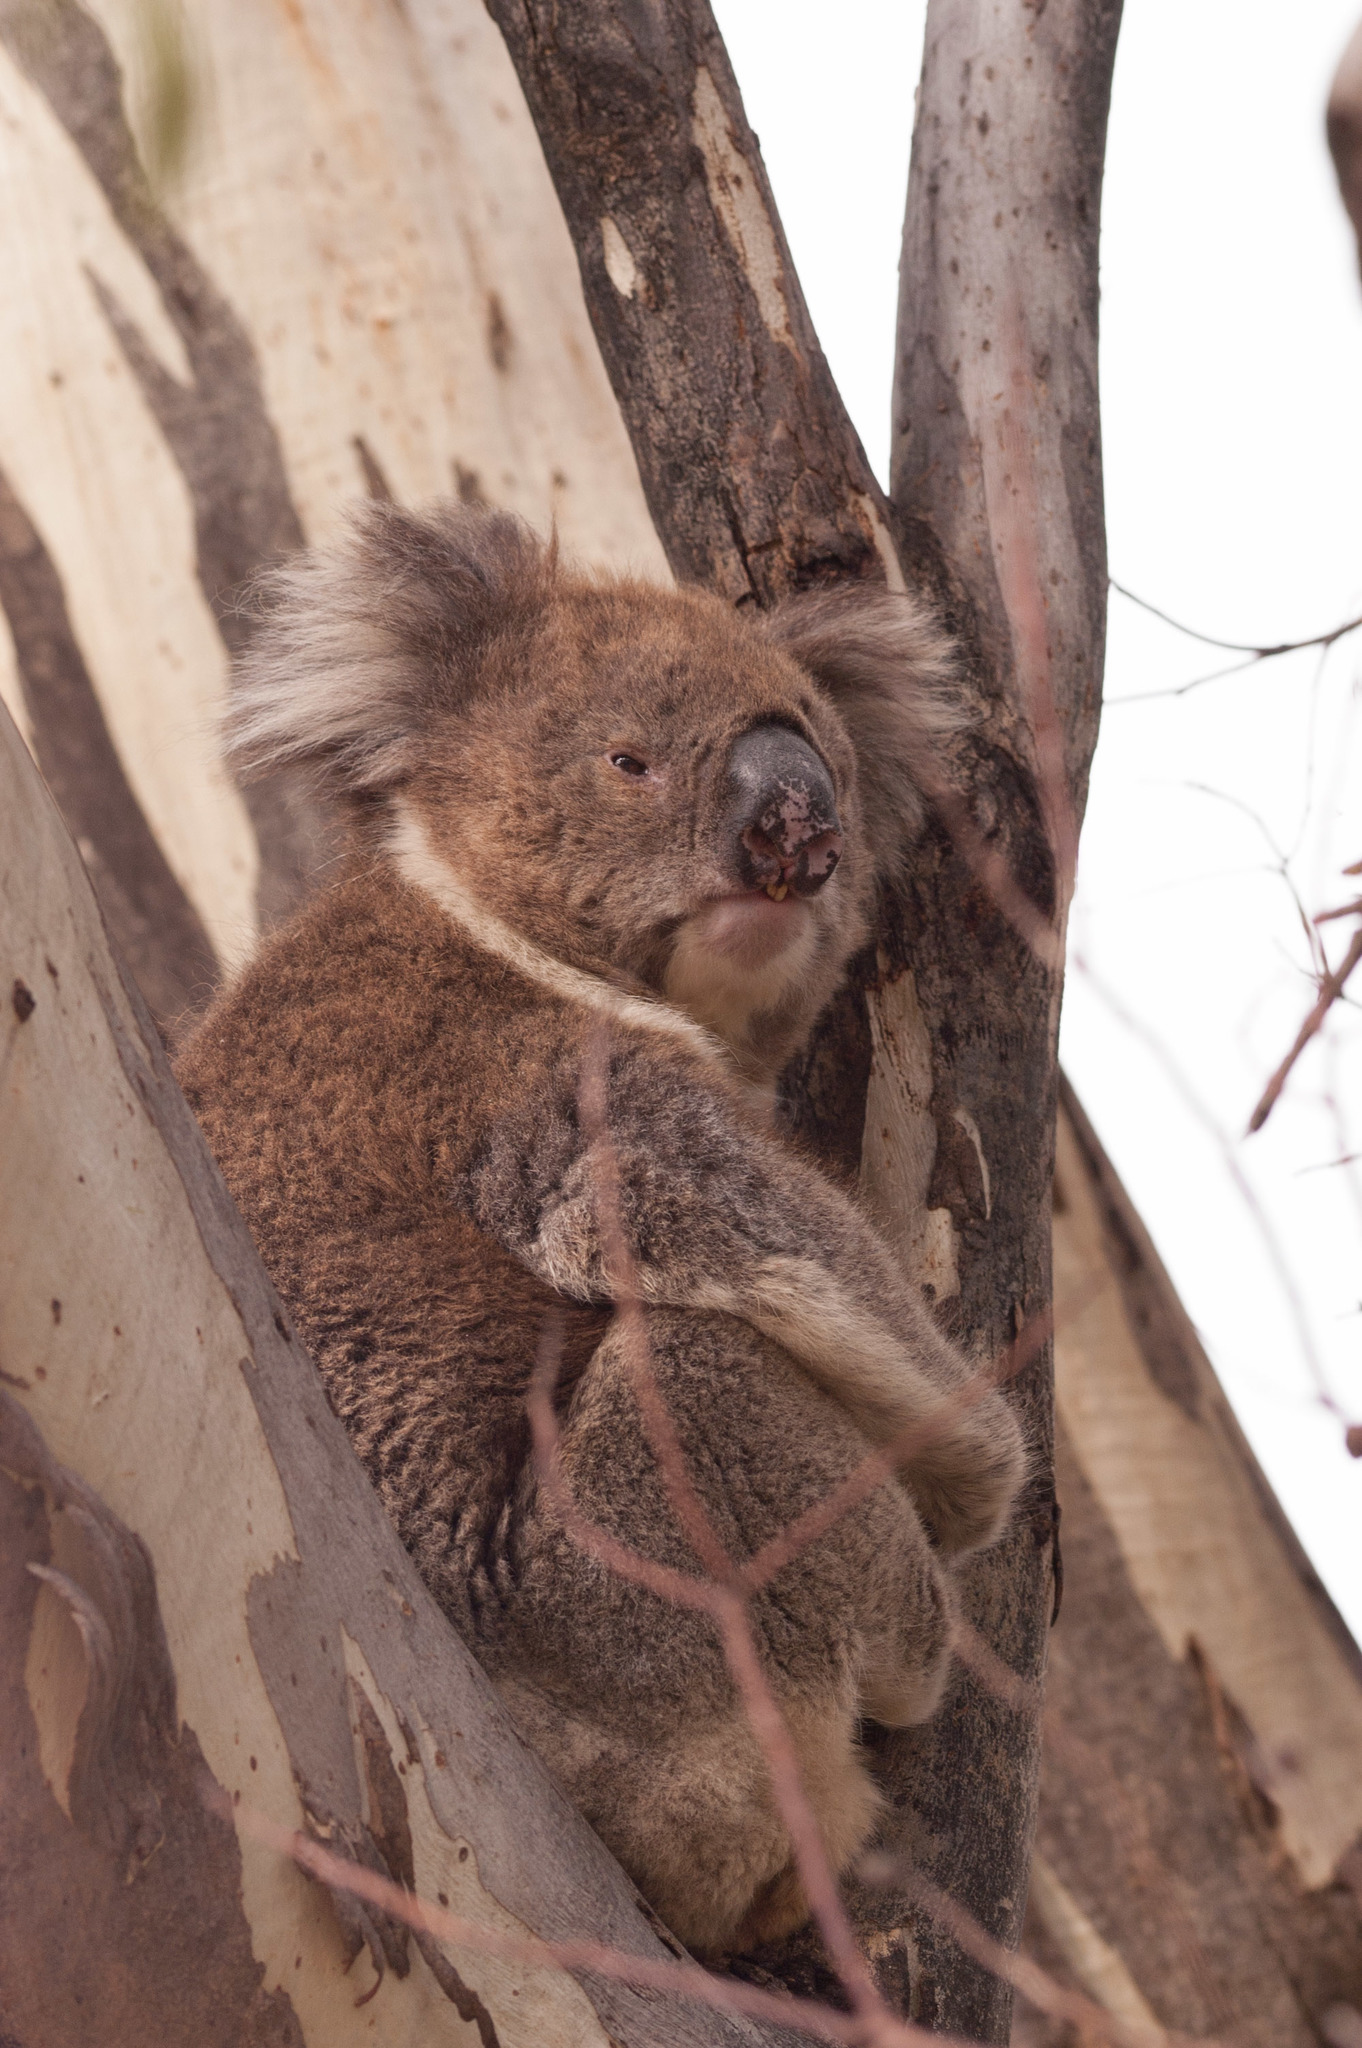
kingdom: Animalia
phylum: Chordata
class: Mammalia
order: Diprotodontia
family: Phascolarctidae
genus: Phascolarctos
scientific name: Phascolarctos cinereus
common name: Koala
